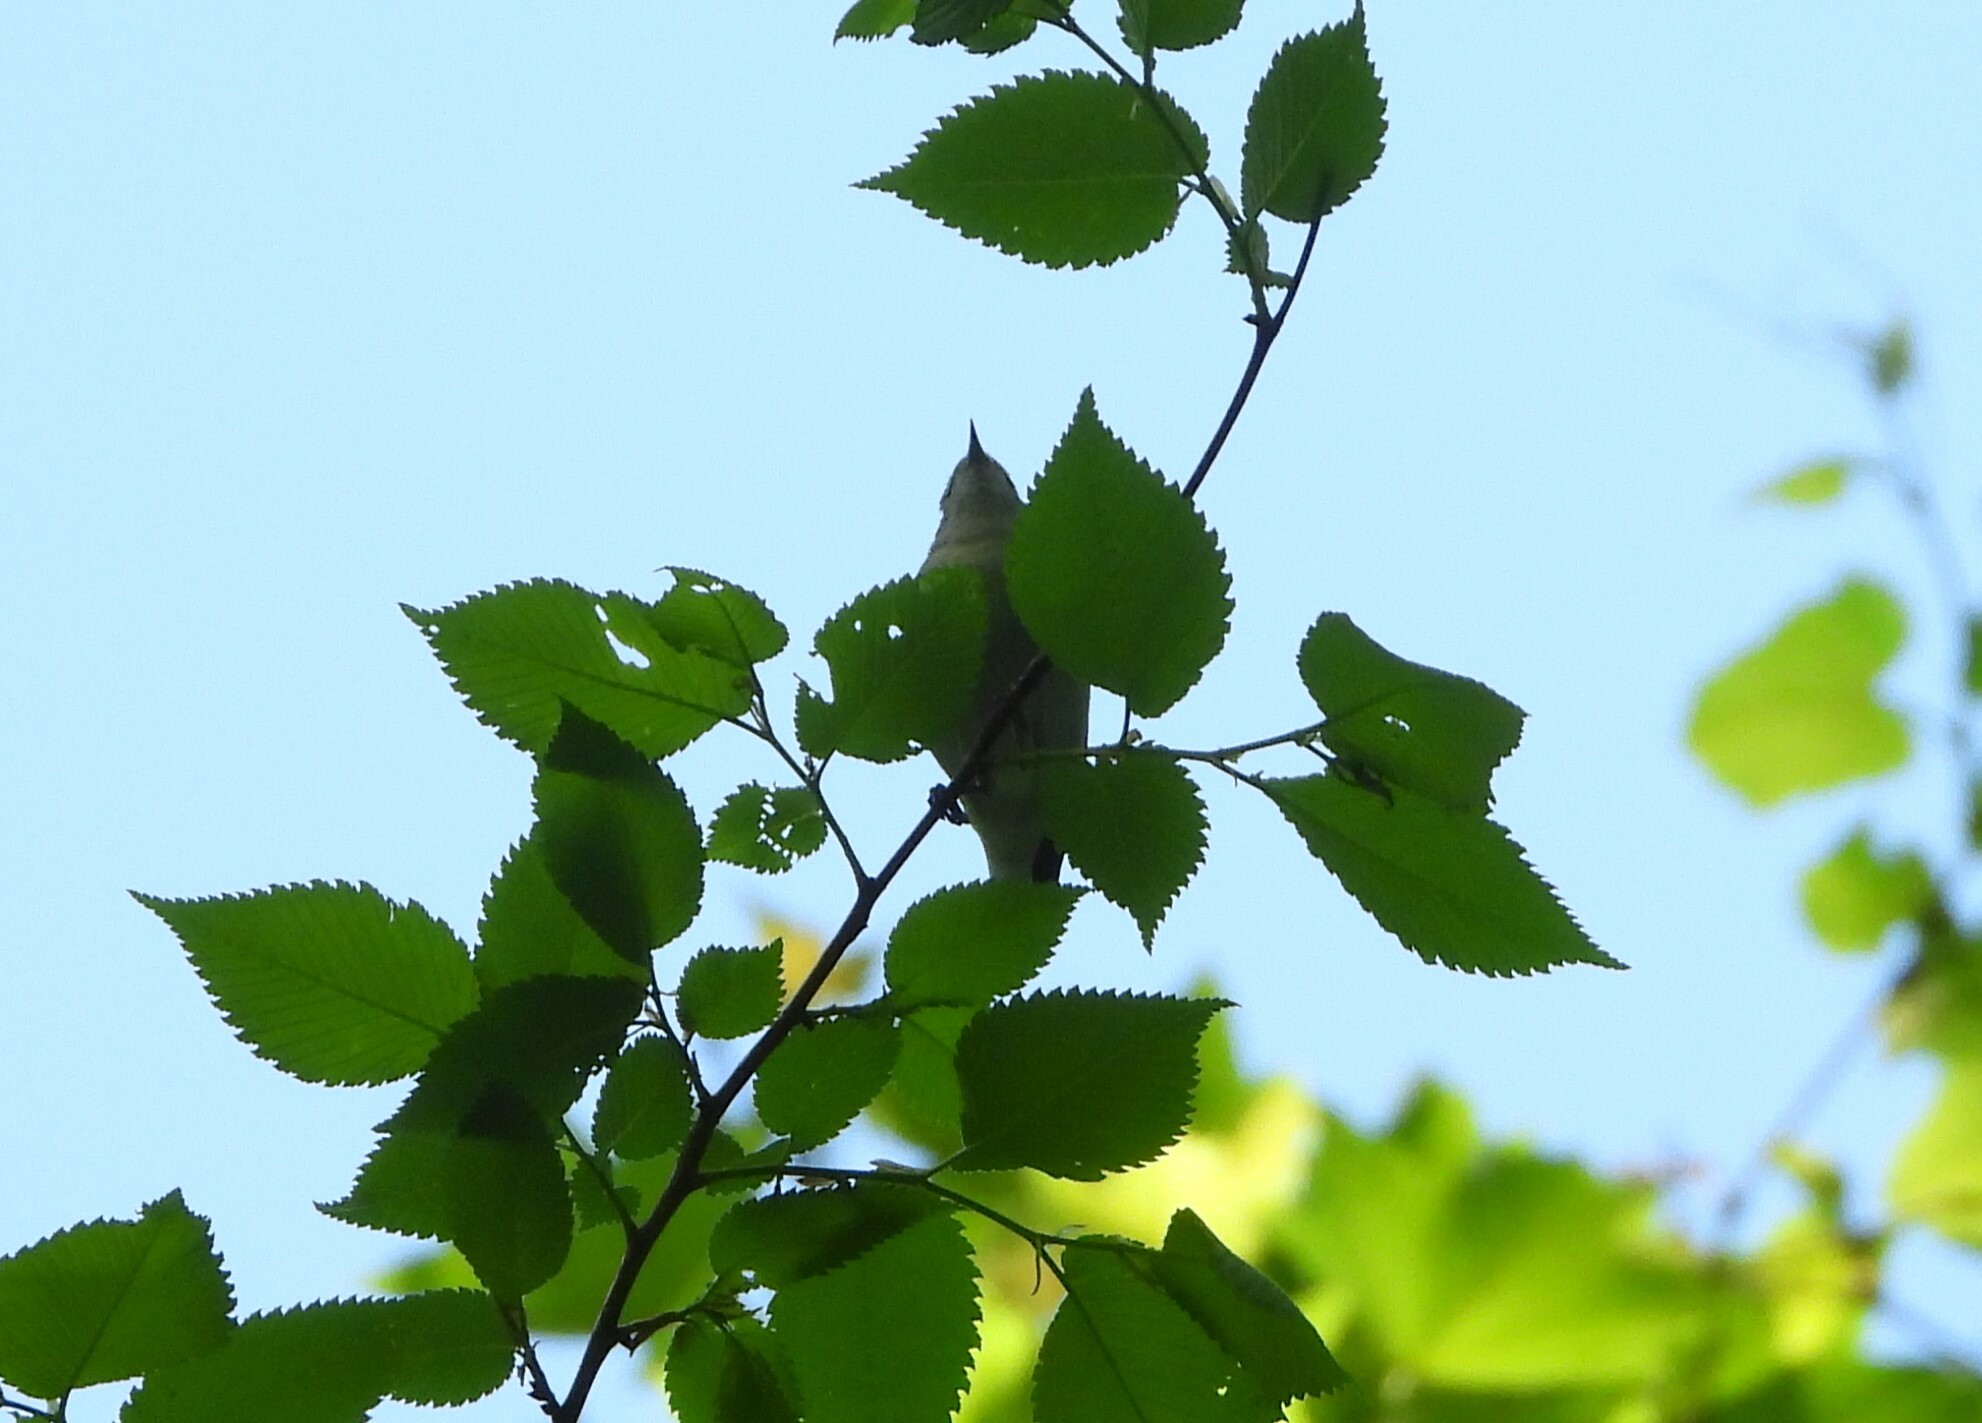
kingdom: Animalia
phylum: Chordata
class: Aves
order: Passeriformes
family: Parulidae
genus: Leiothlypis
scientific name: Leiothlypis peregrina
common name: Tennessee warbler
